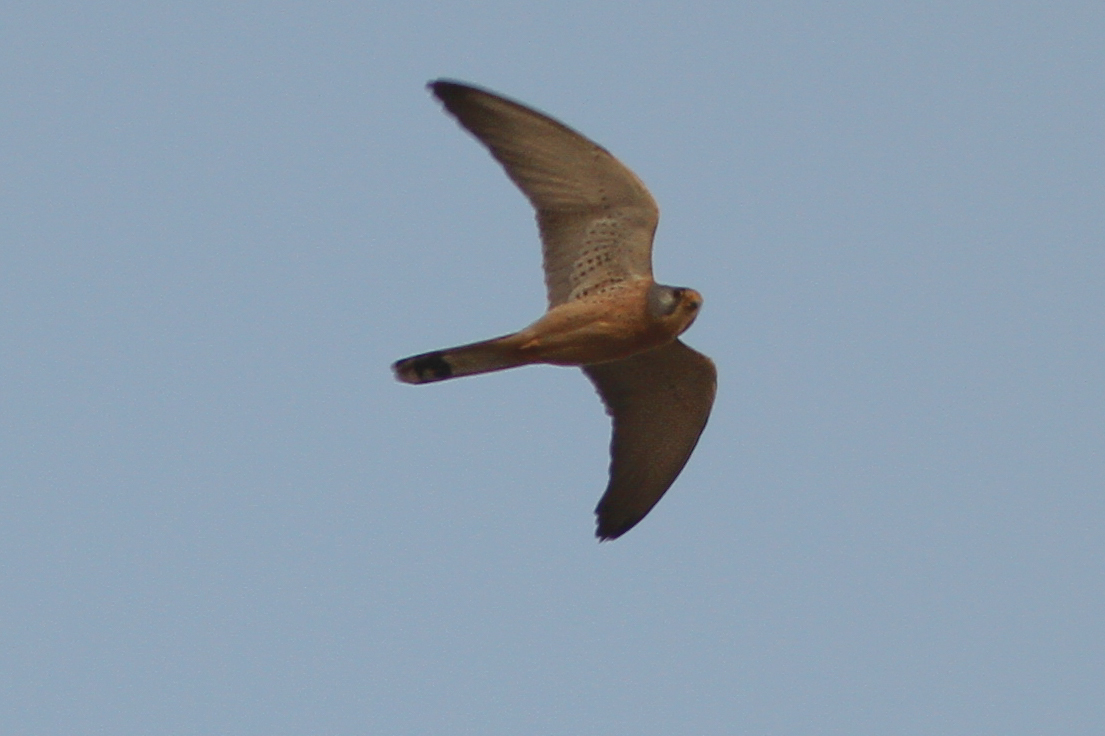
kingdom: Animalia
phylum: Chordata
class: Aves
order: Falconiformes
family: Falconidae
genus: Falco
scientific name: Falco naumanni
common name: Lesser kestrel
